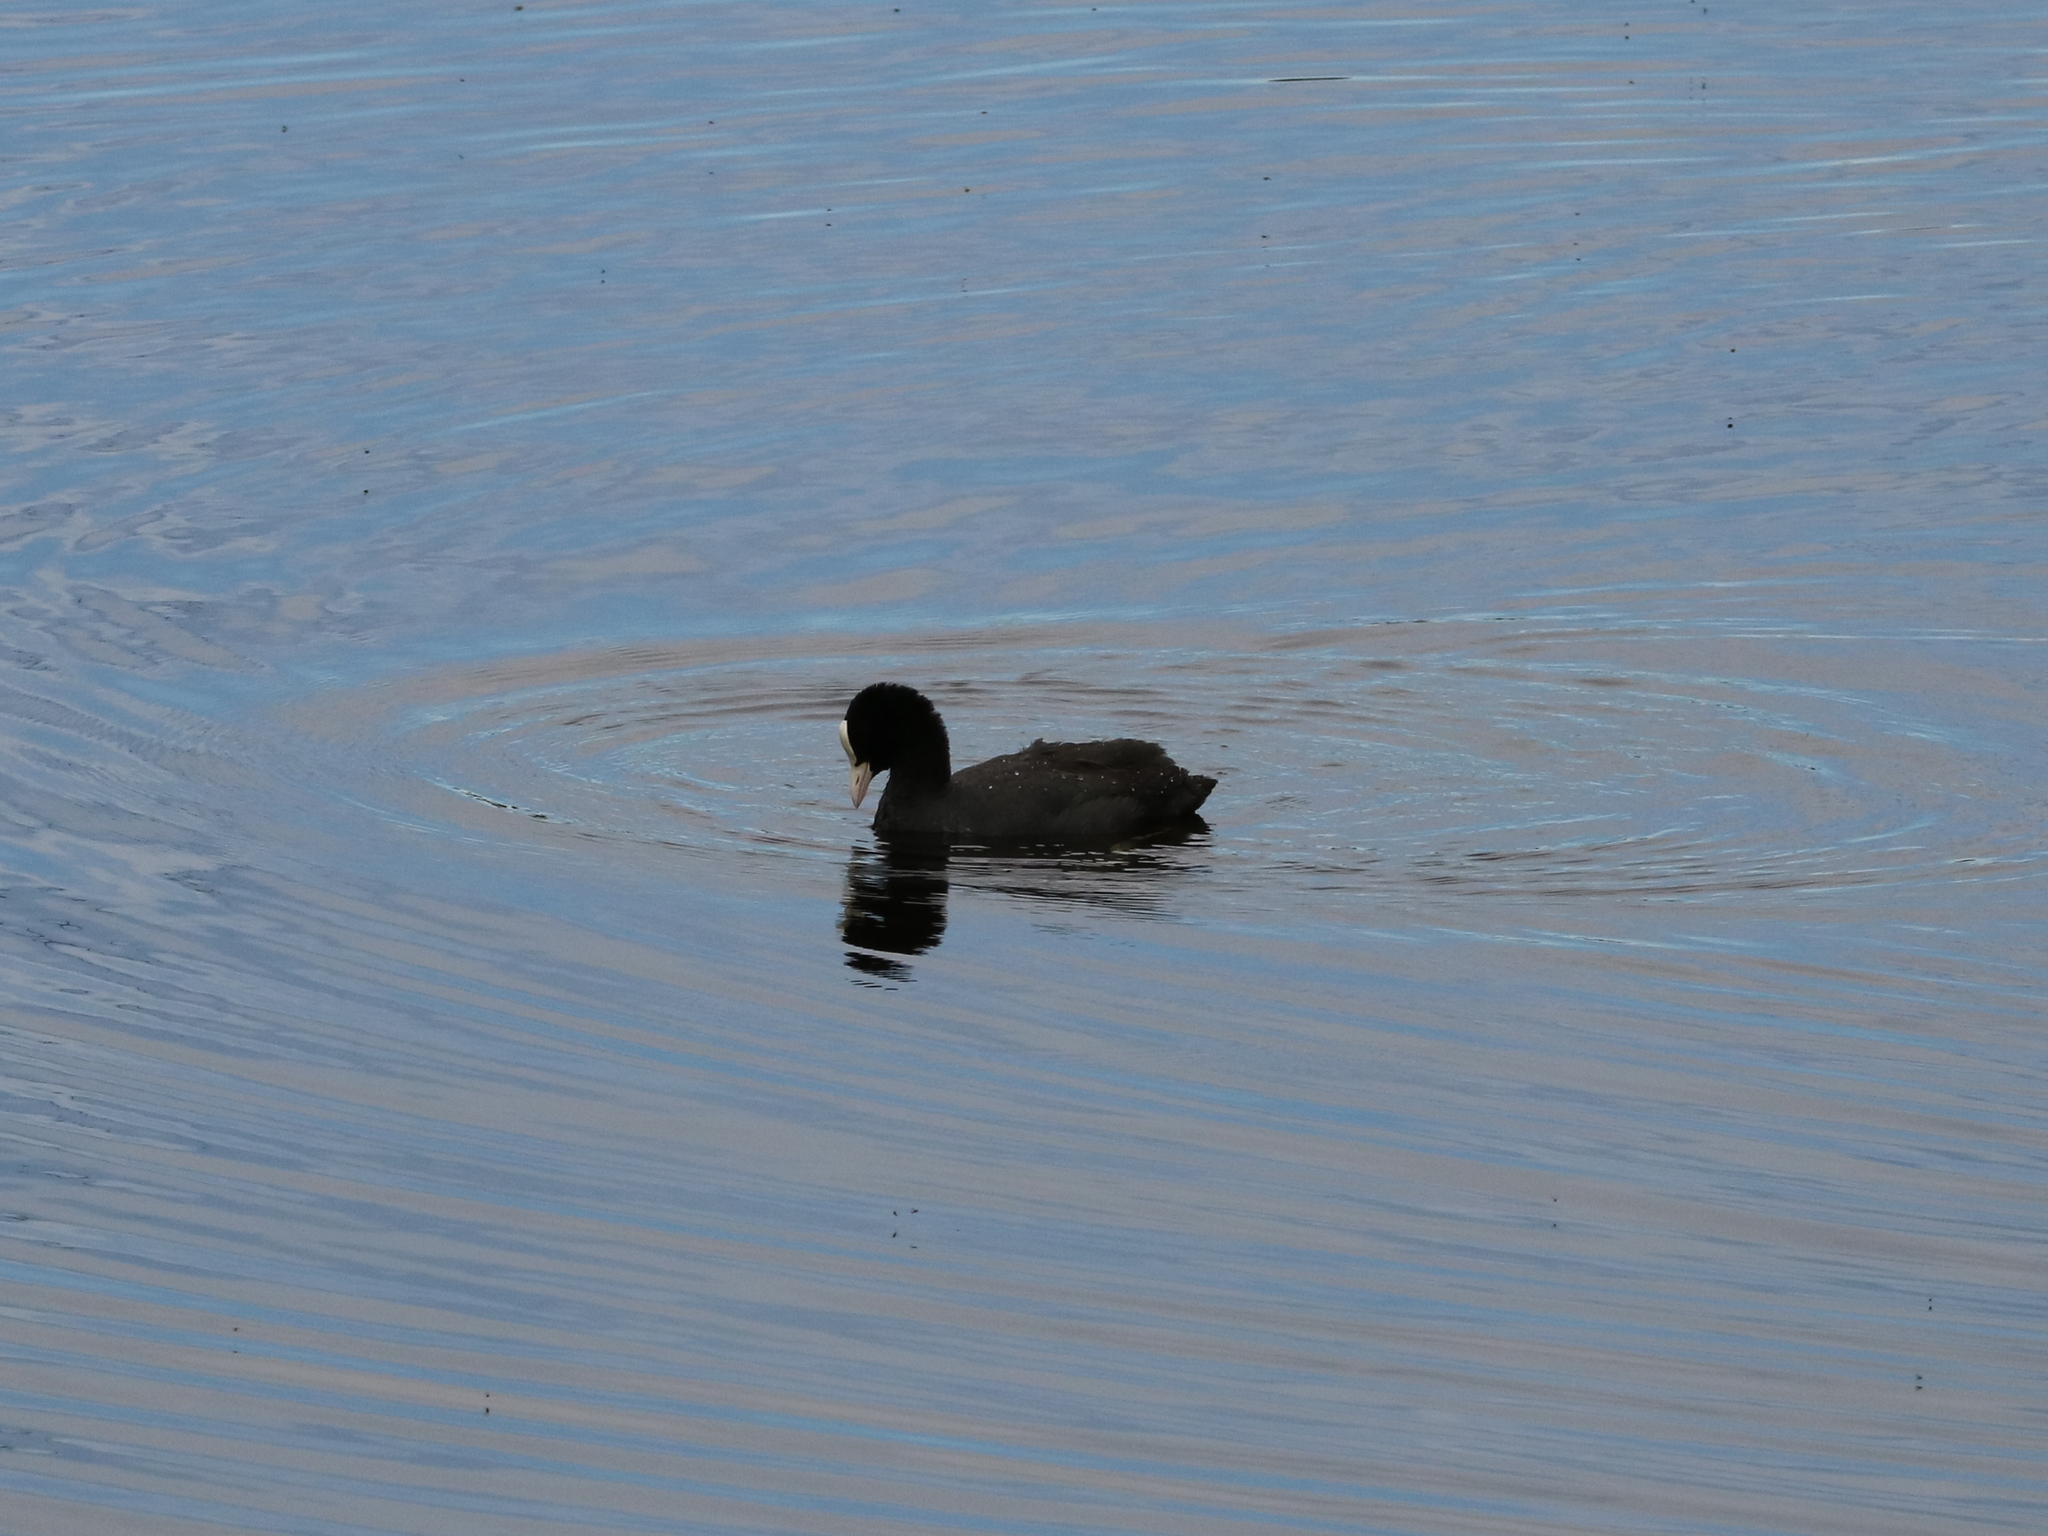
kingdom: Animalia
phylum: Chordata
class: Aves
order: Gruiformes
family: Rallidae
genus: Fulica
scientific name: Fulica atra
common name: Eurasian coot
